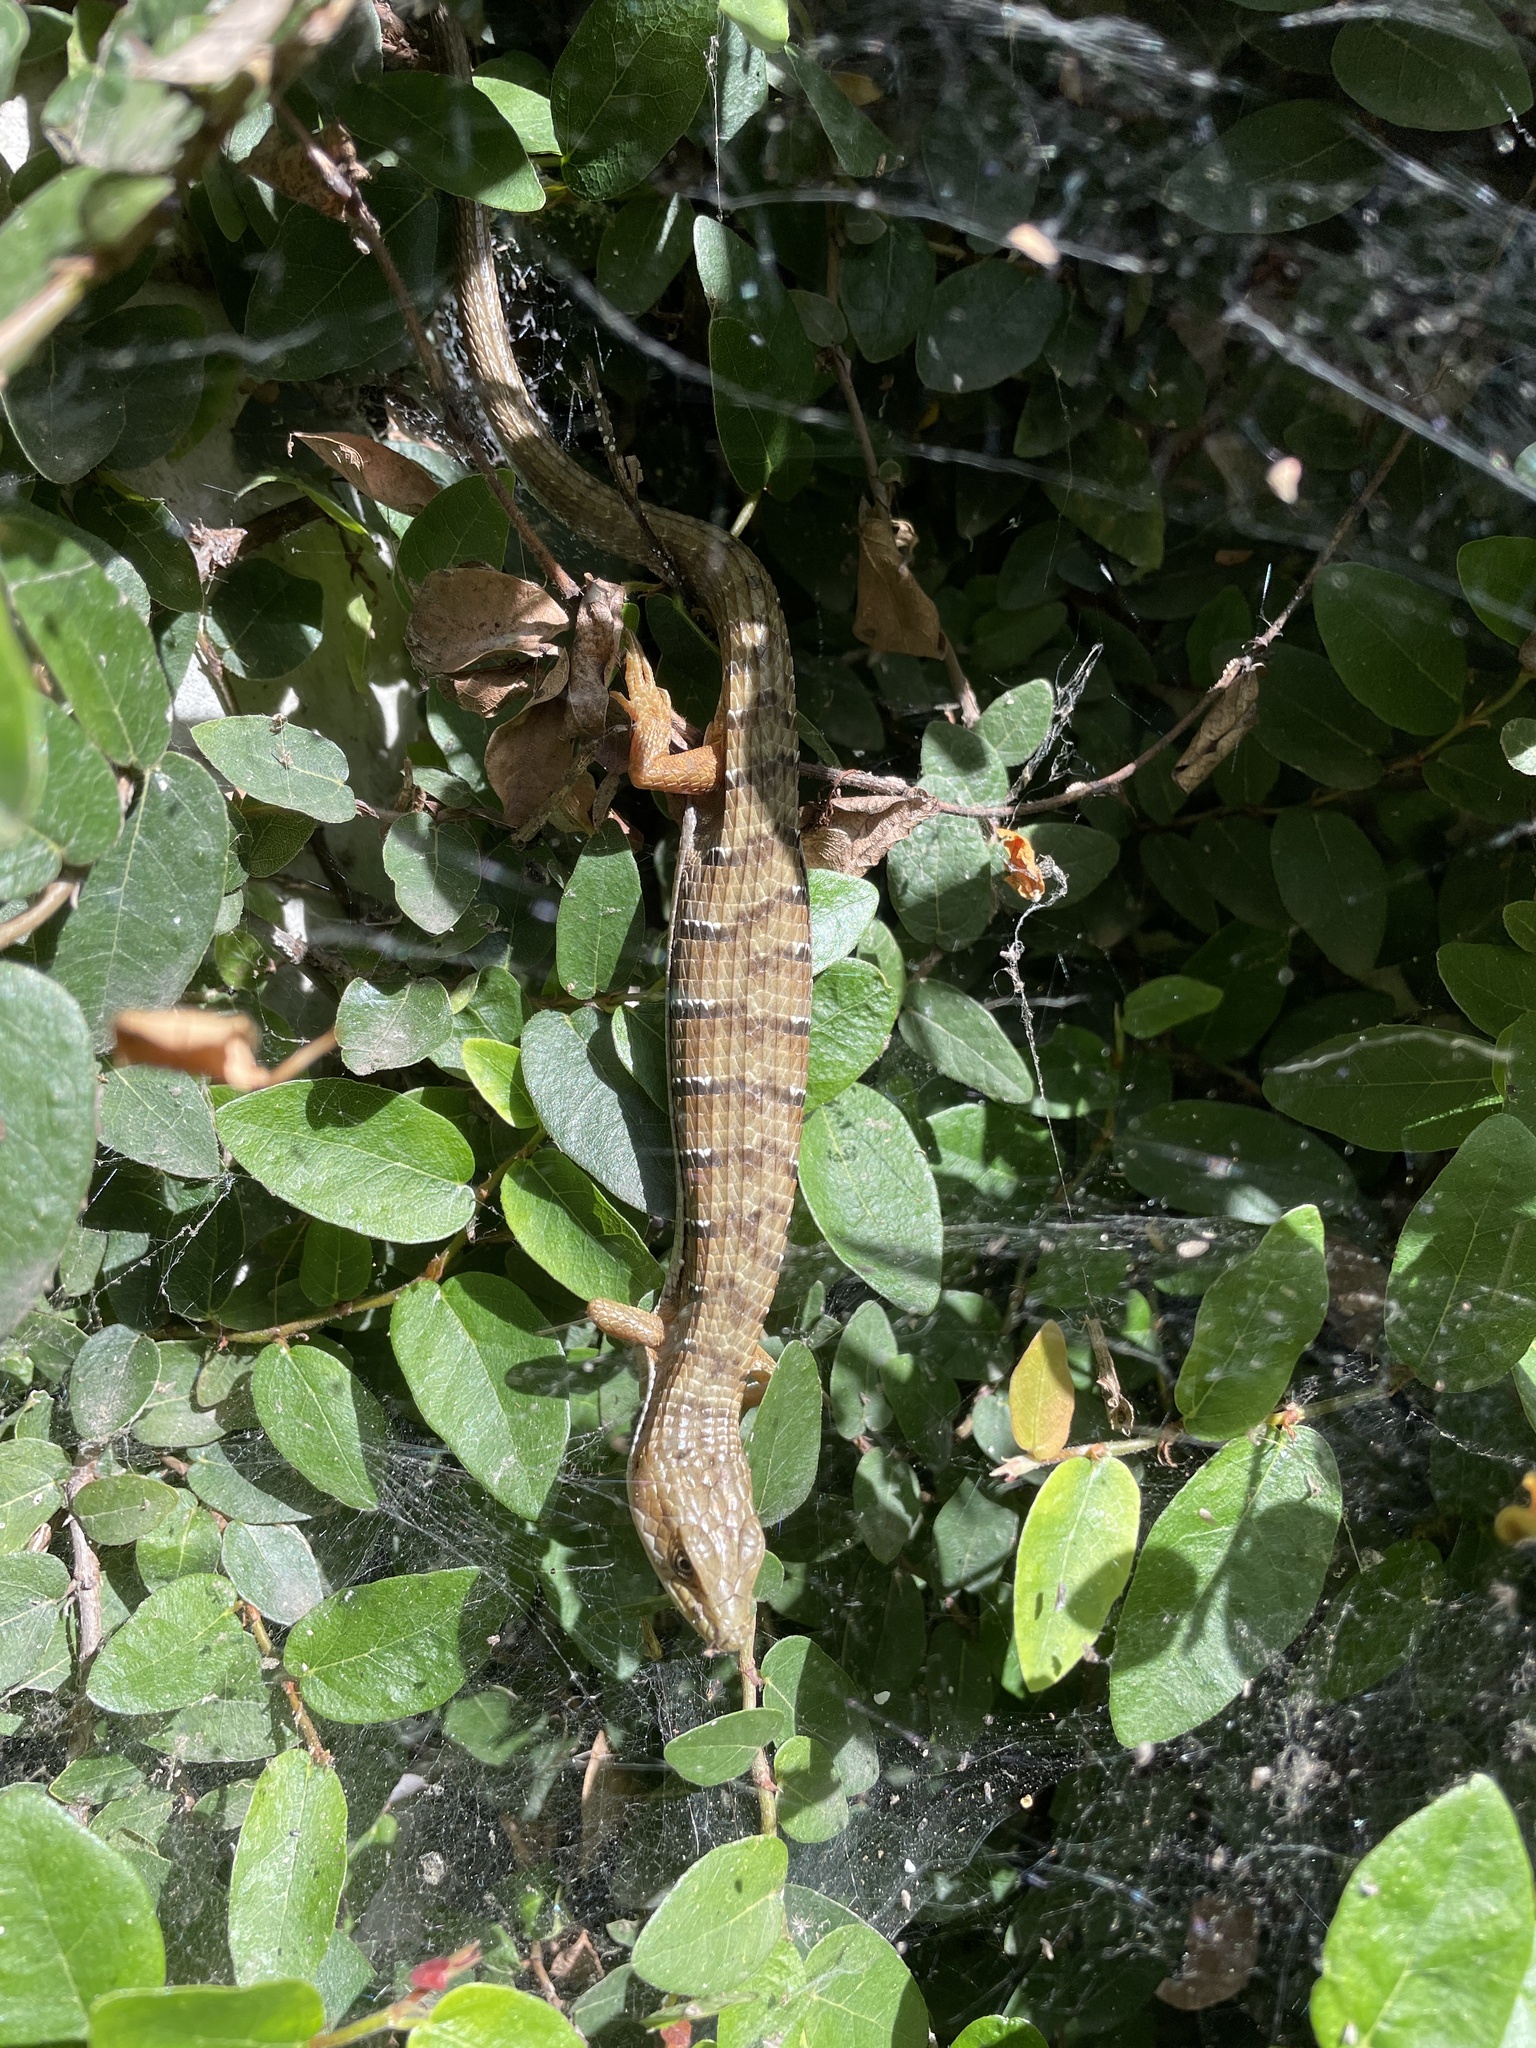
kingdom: Animalia
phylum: Chordata
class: Squamata
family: Anguidae
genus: Elgaria
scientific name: Elgaria multicarinata
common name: Southern alligator lizard
